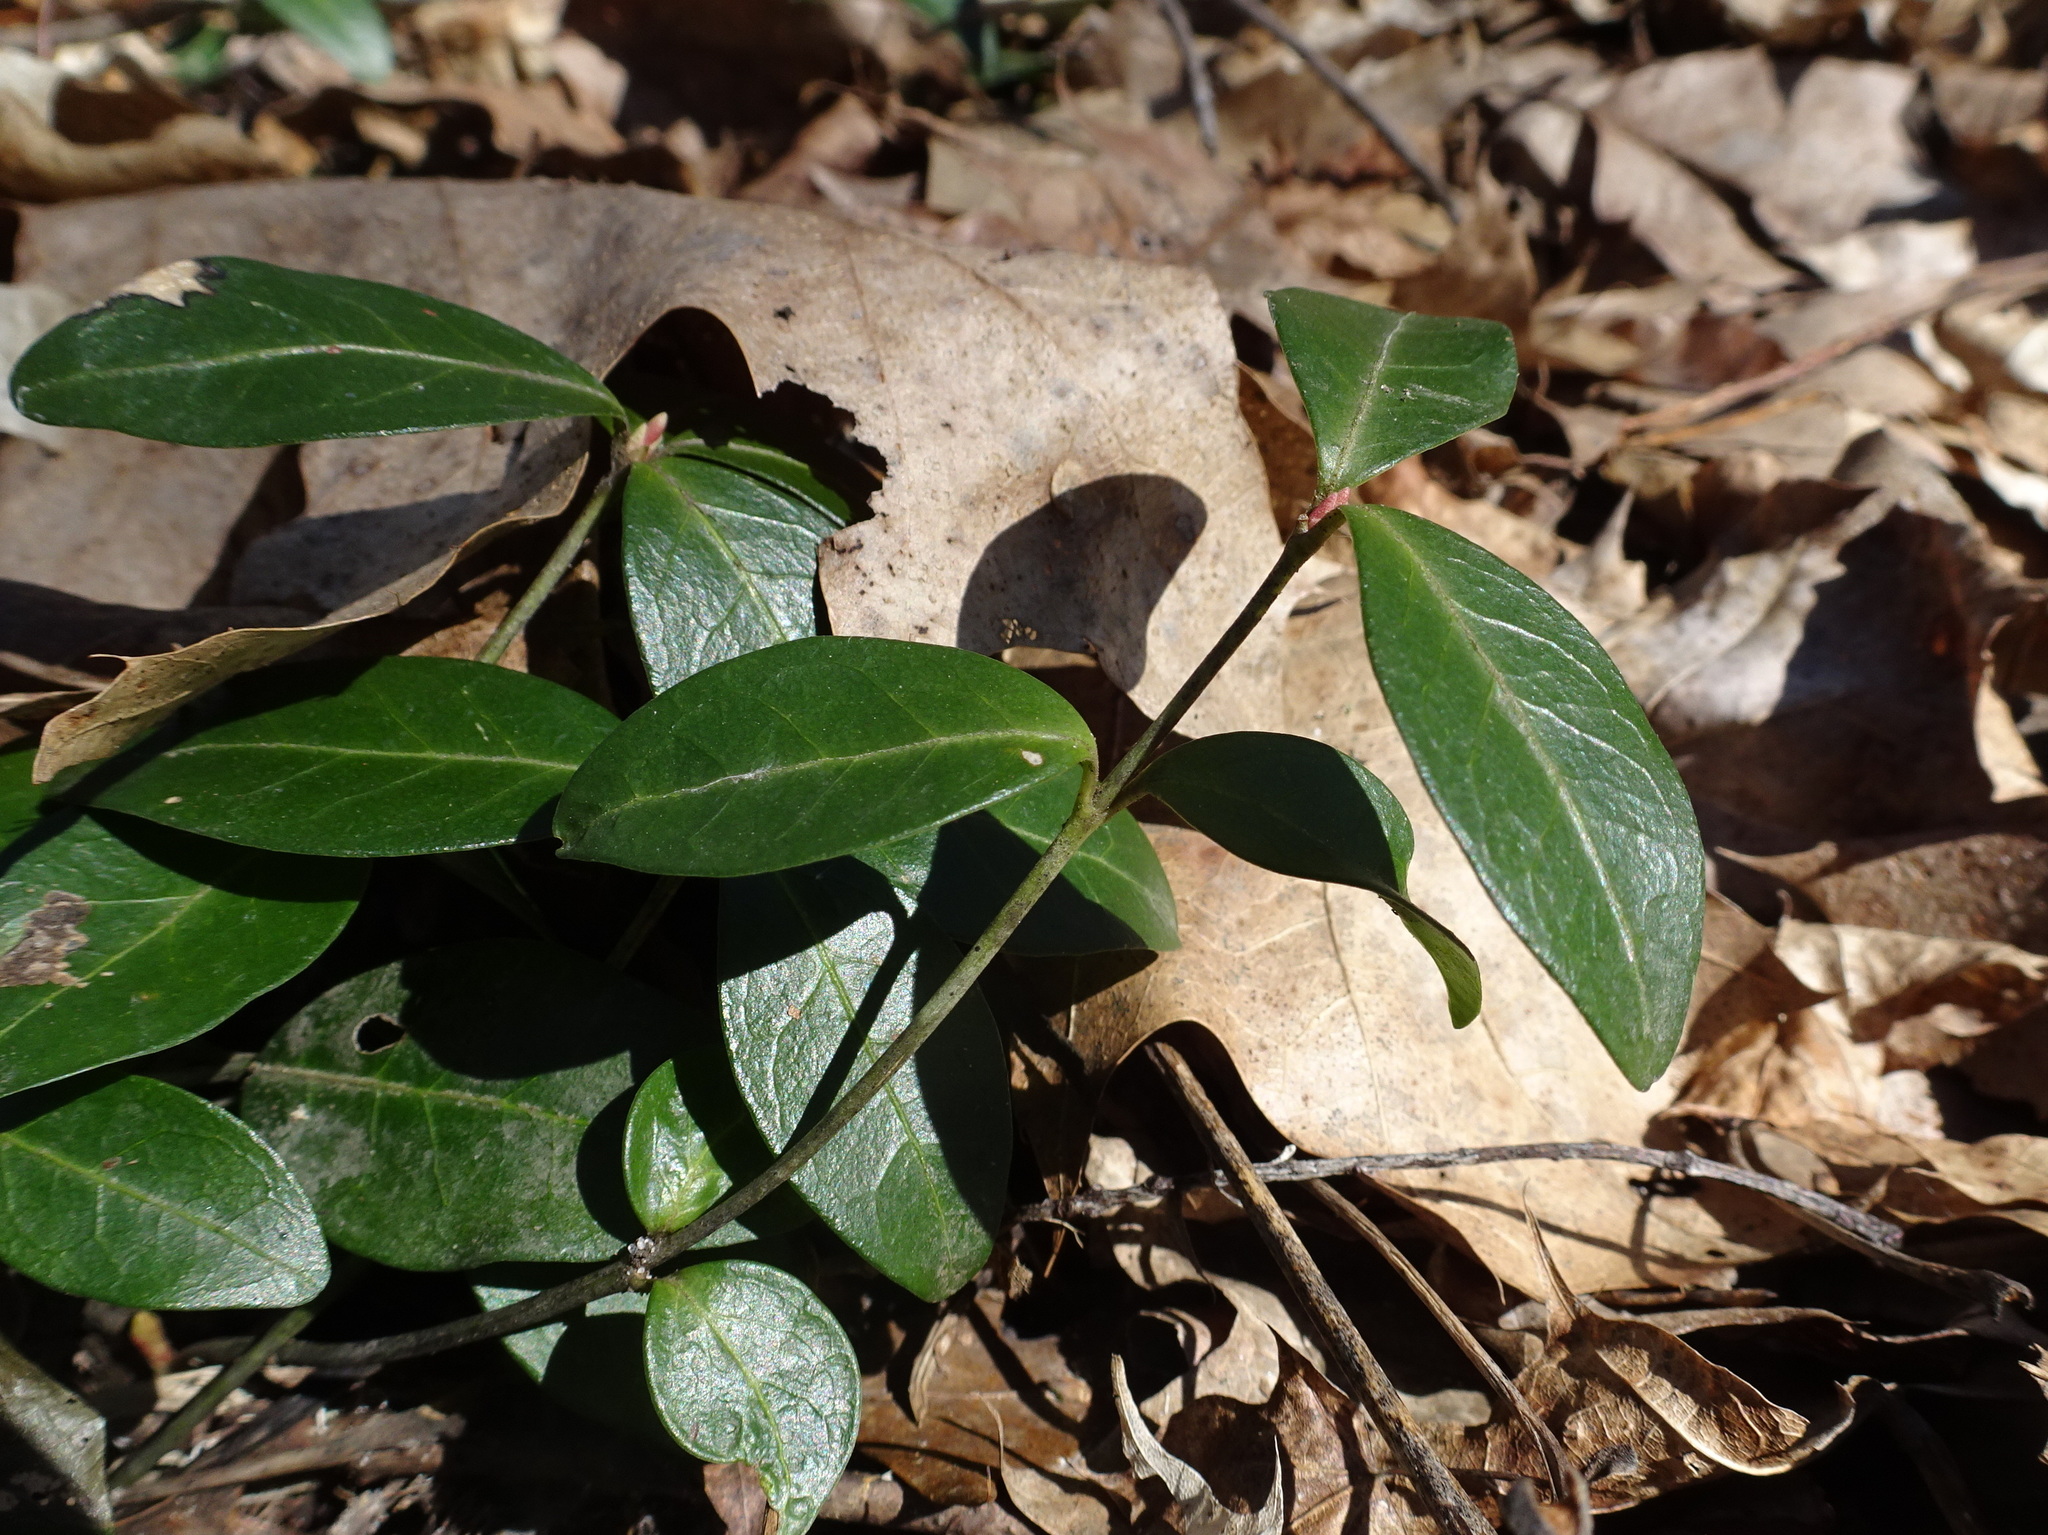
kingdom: Plantae
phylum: Tracheophyta
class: Magnoliopsida
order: Gentianales
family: Apocynaceae
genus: Vinca
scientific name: Vinca minor
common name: Lesser periwinkle
